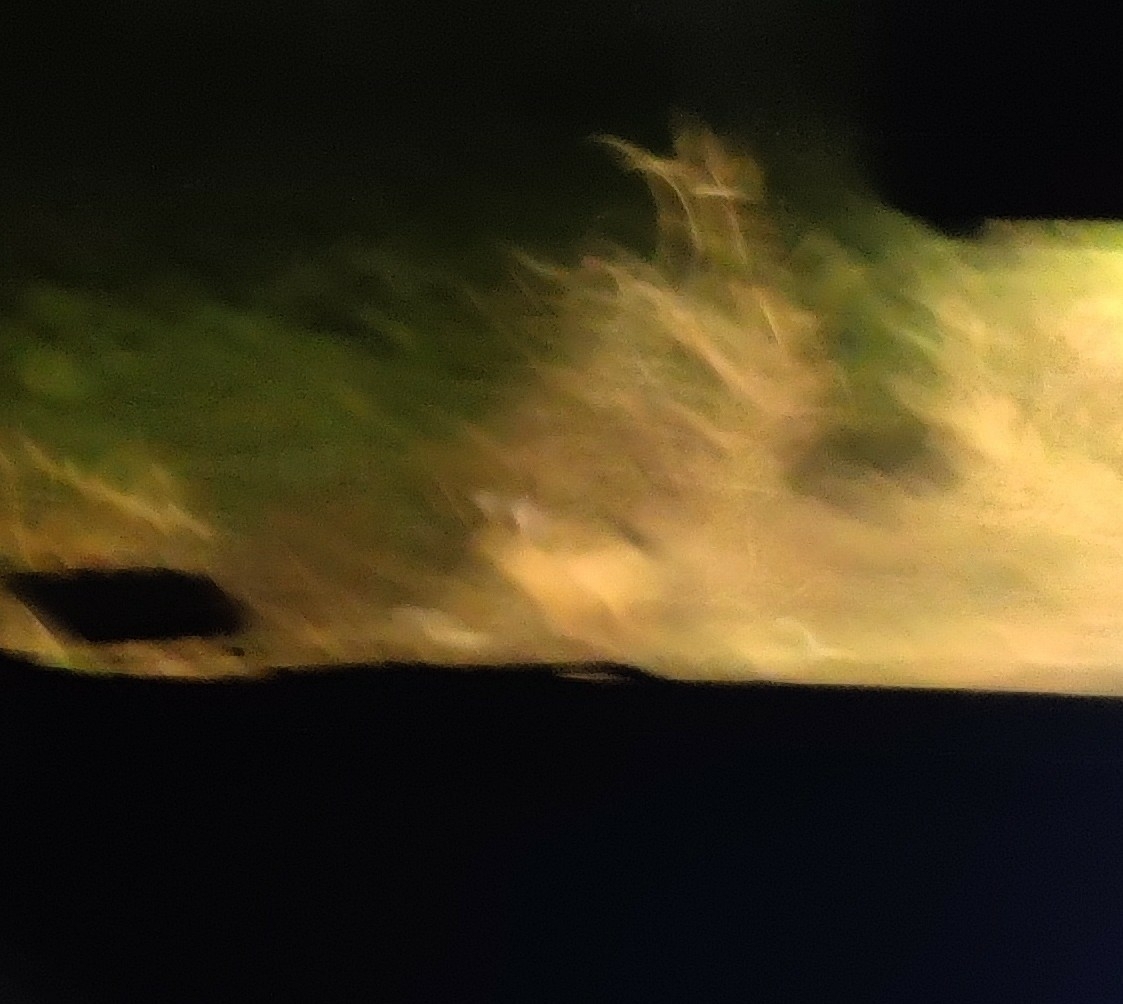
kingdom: Animalia
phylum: Chordata
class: Mammalia
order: Lagomorpha
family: Leporidae
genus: Lepus
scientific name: Lepus nigricollis
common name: Indian hare
